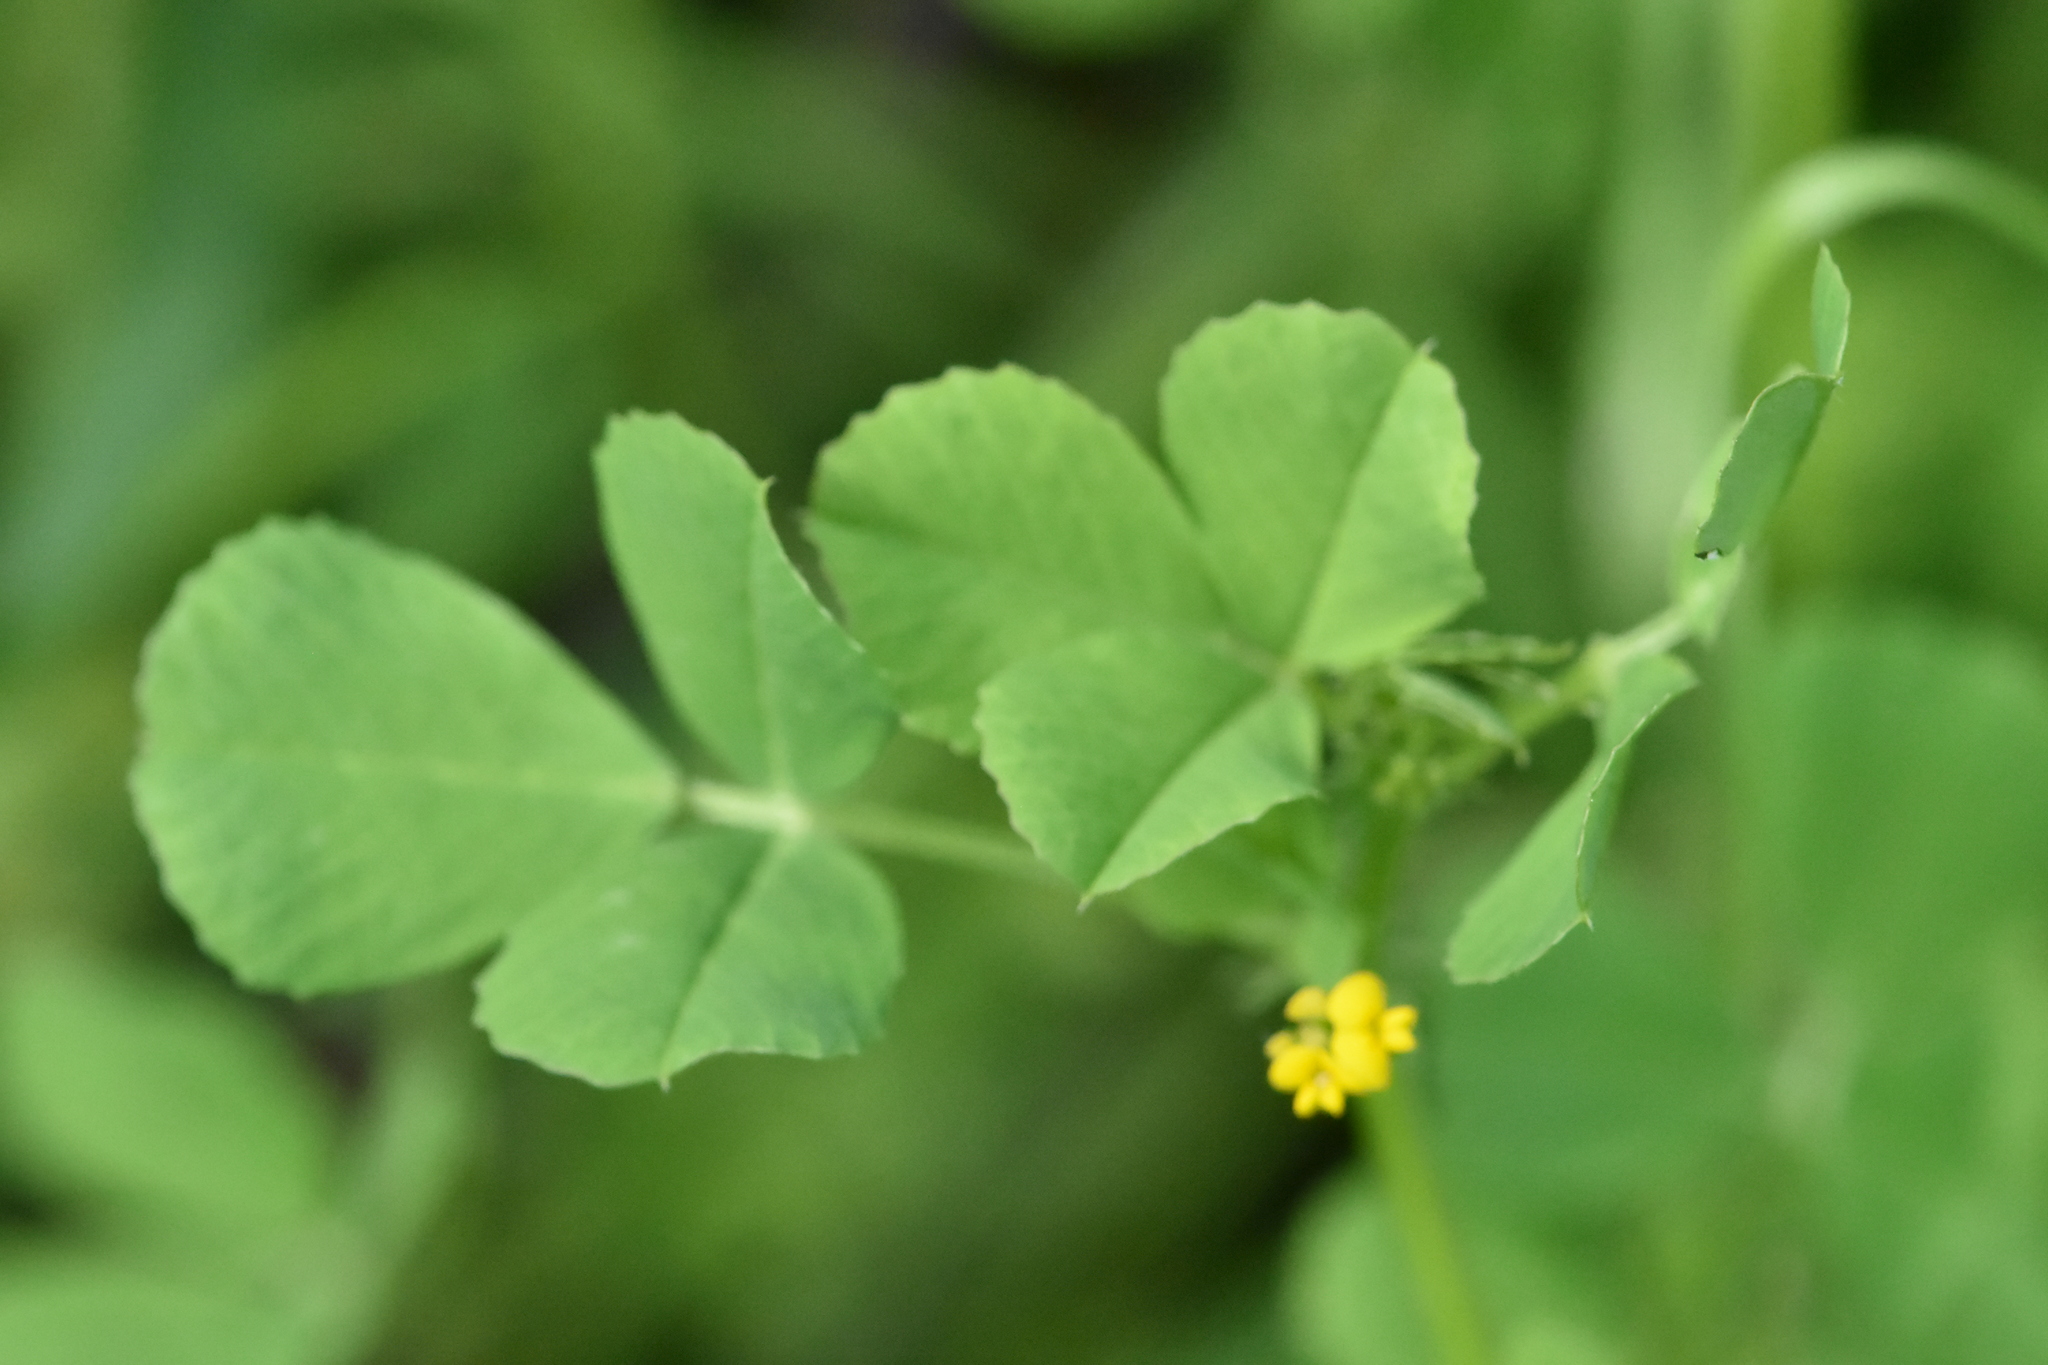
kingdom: Plantae
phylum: Tracheophyta
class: Magnoliopsida
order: Fabales
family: Fabaceae
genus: Medicago
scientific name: Medicago lupulina
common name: Black medick
